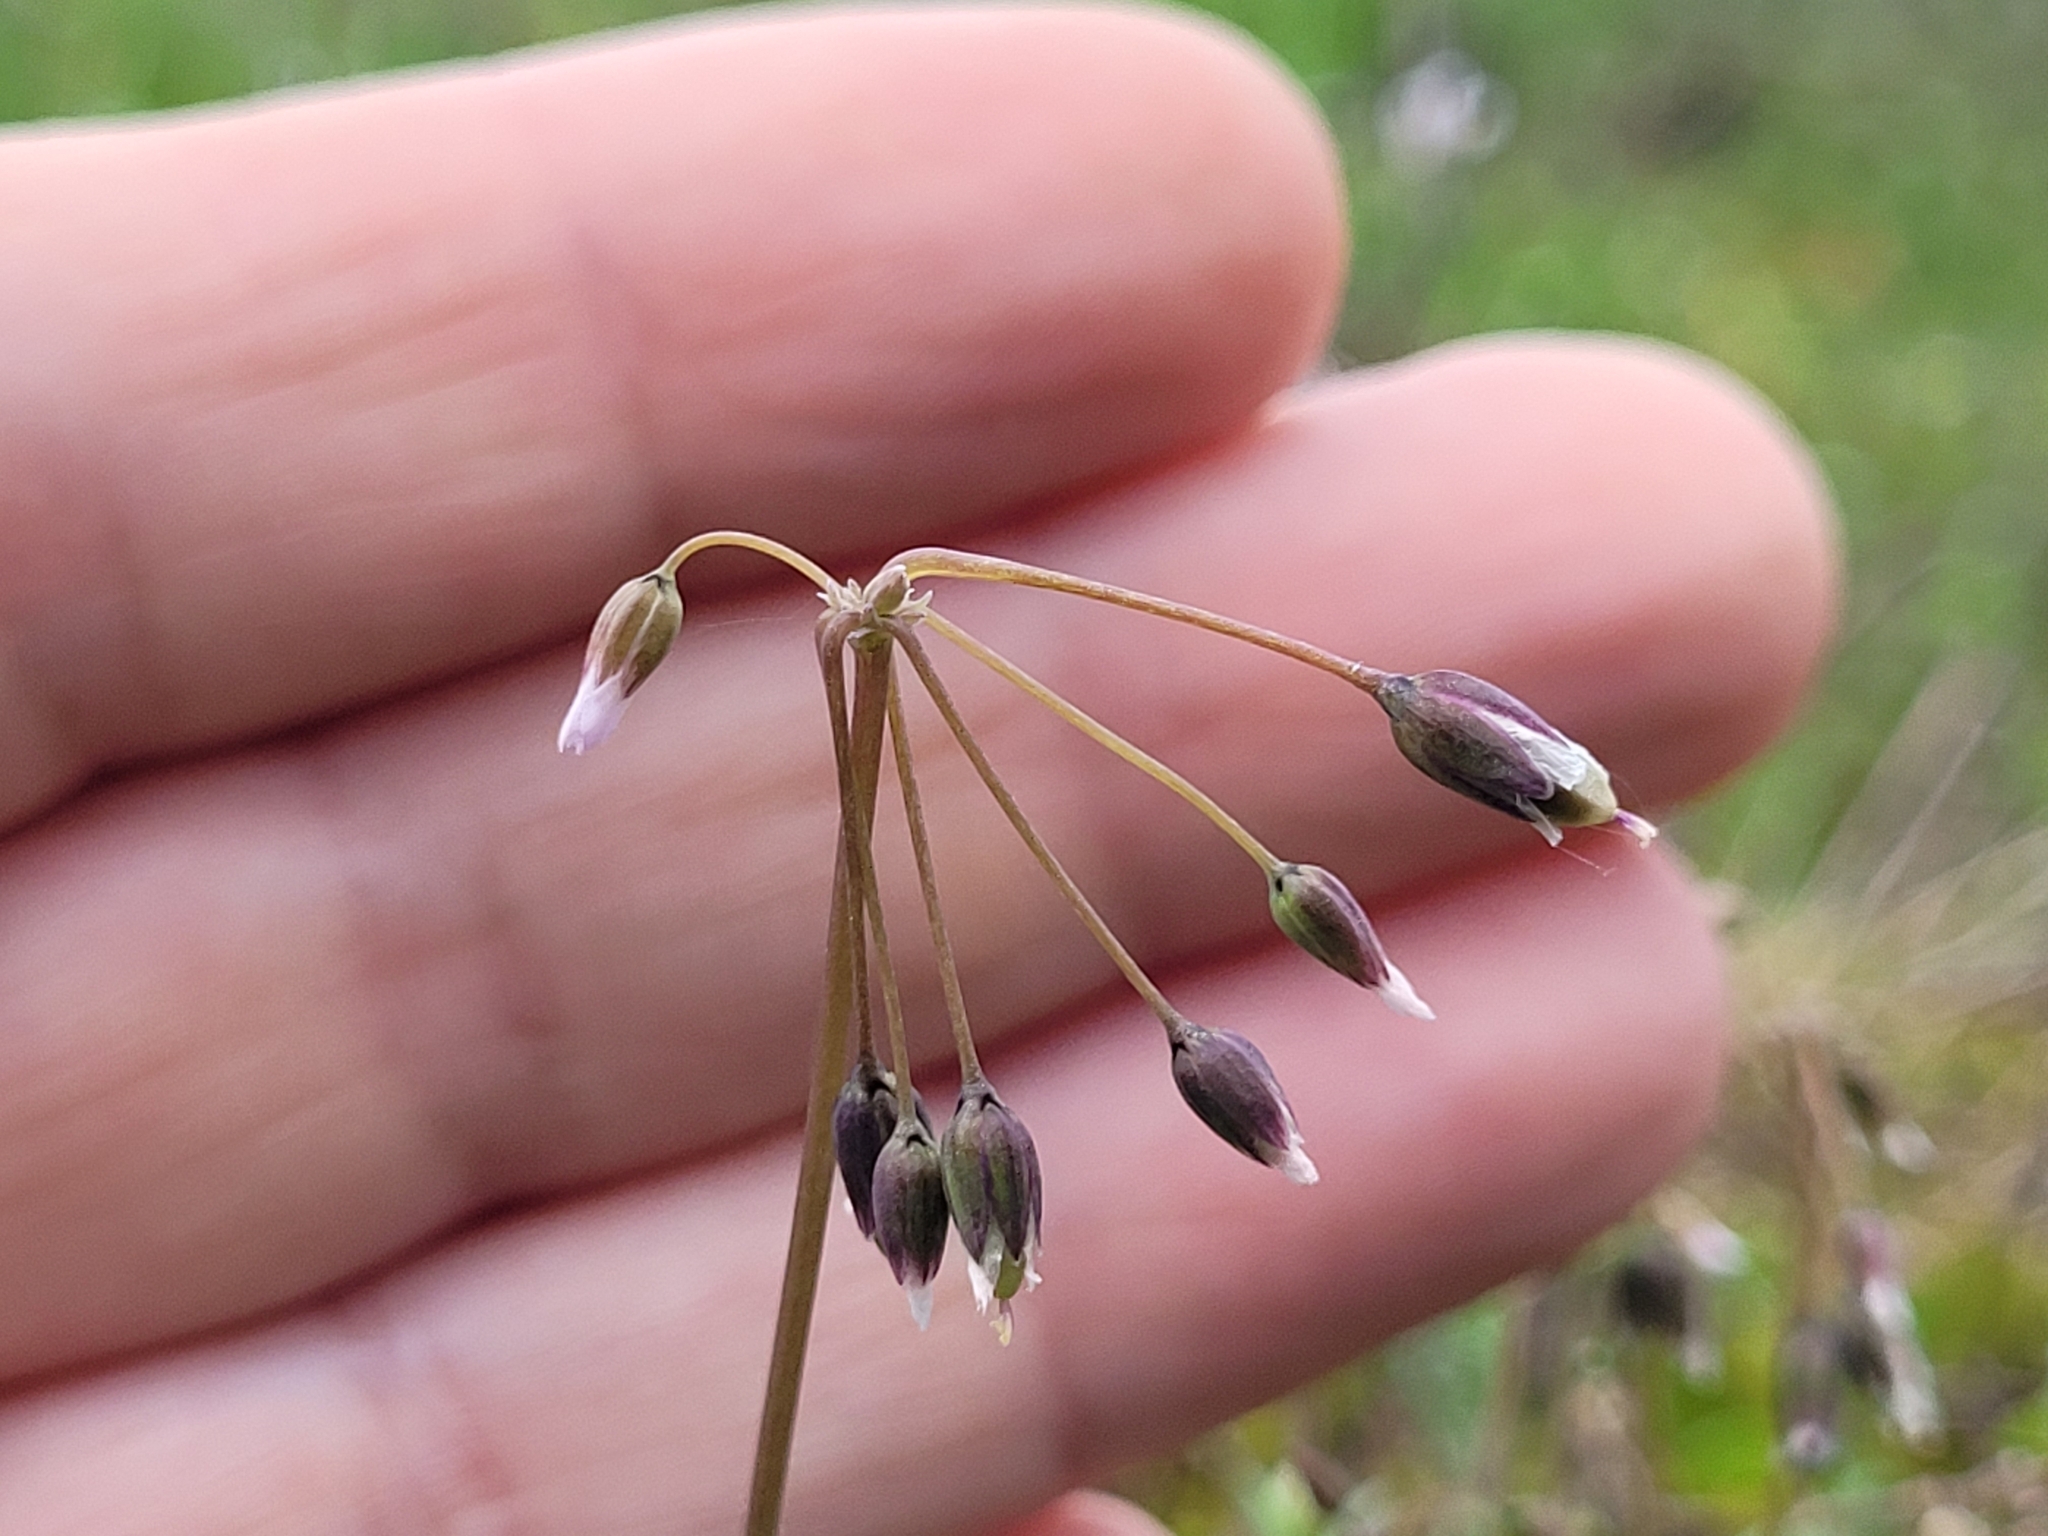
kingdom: Plantae
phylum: Tracheophyta
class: Magnoliopsida
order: Caryophyllales
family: Caryophyllaceae
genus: Holosteum
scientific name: Holosteum umbellatum
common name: Jagged chickweed
